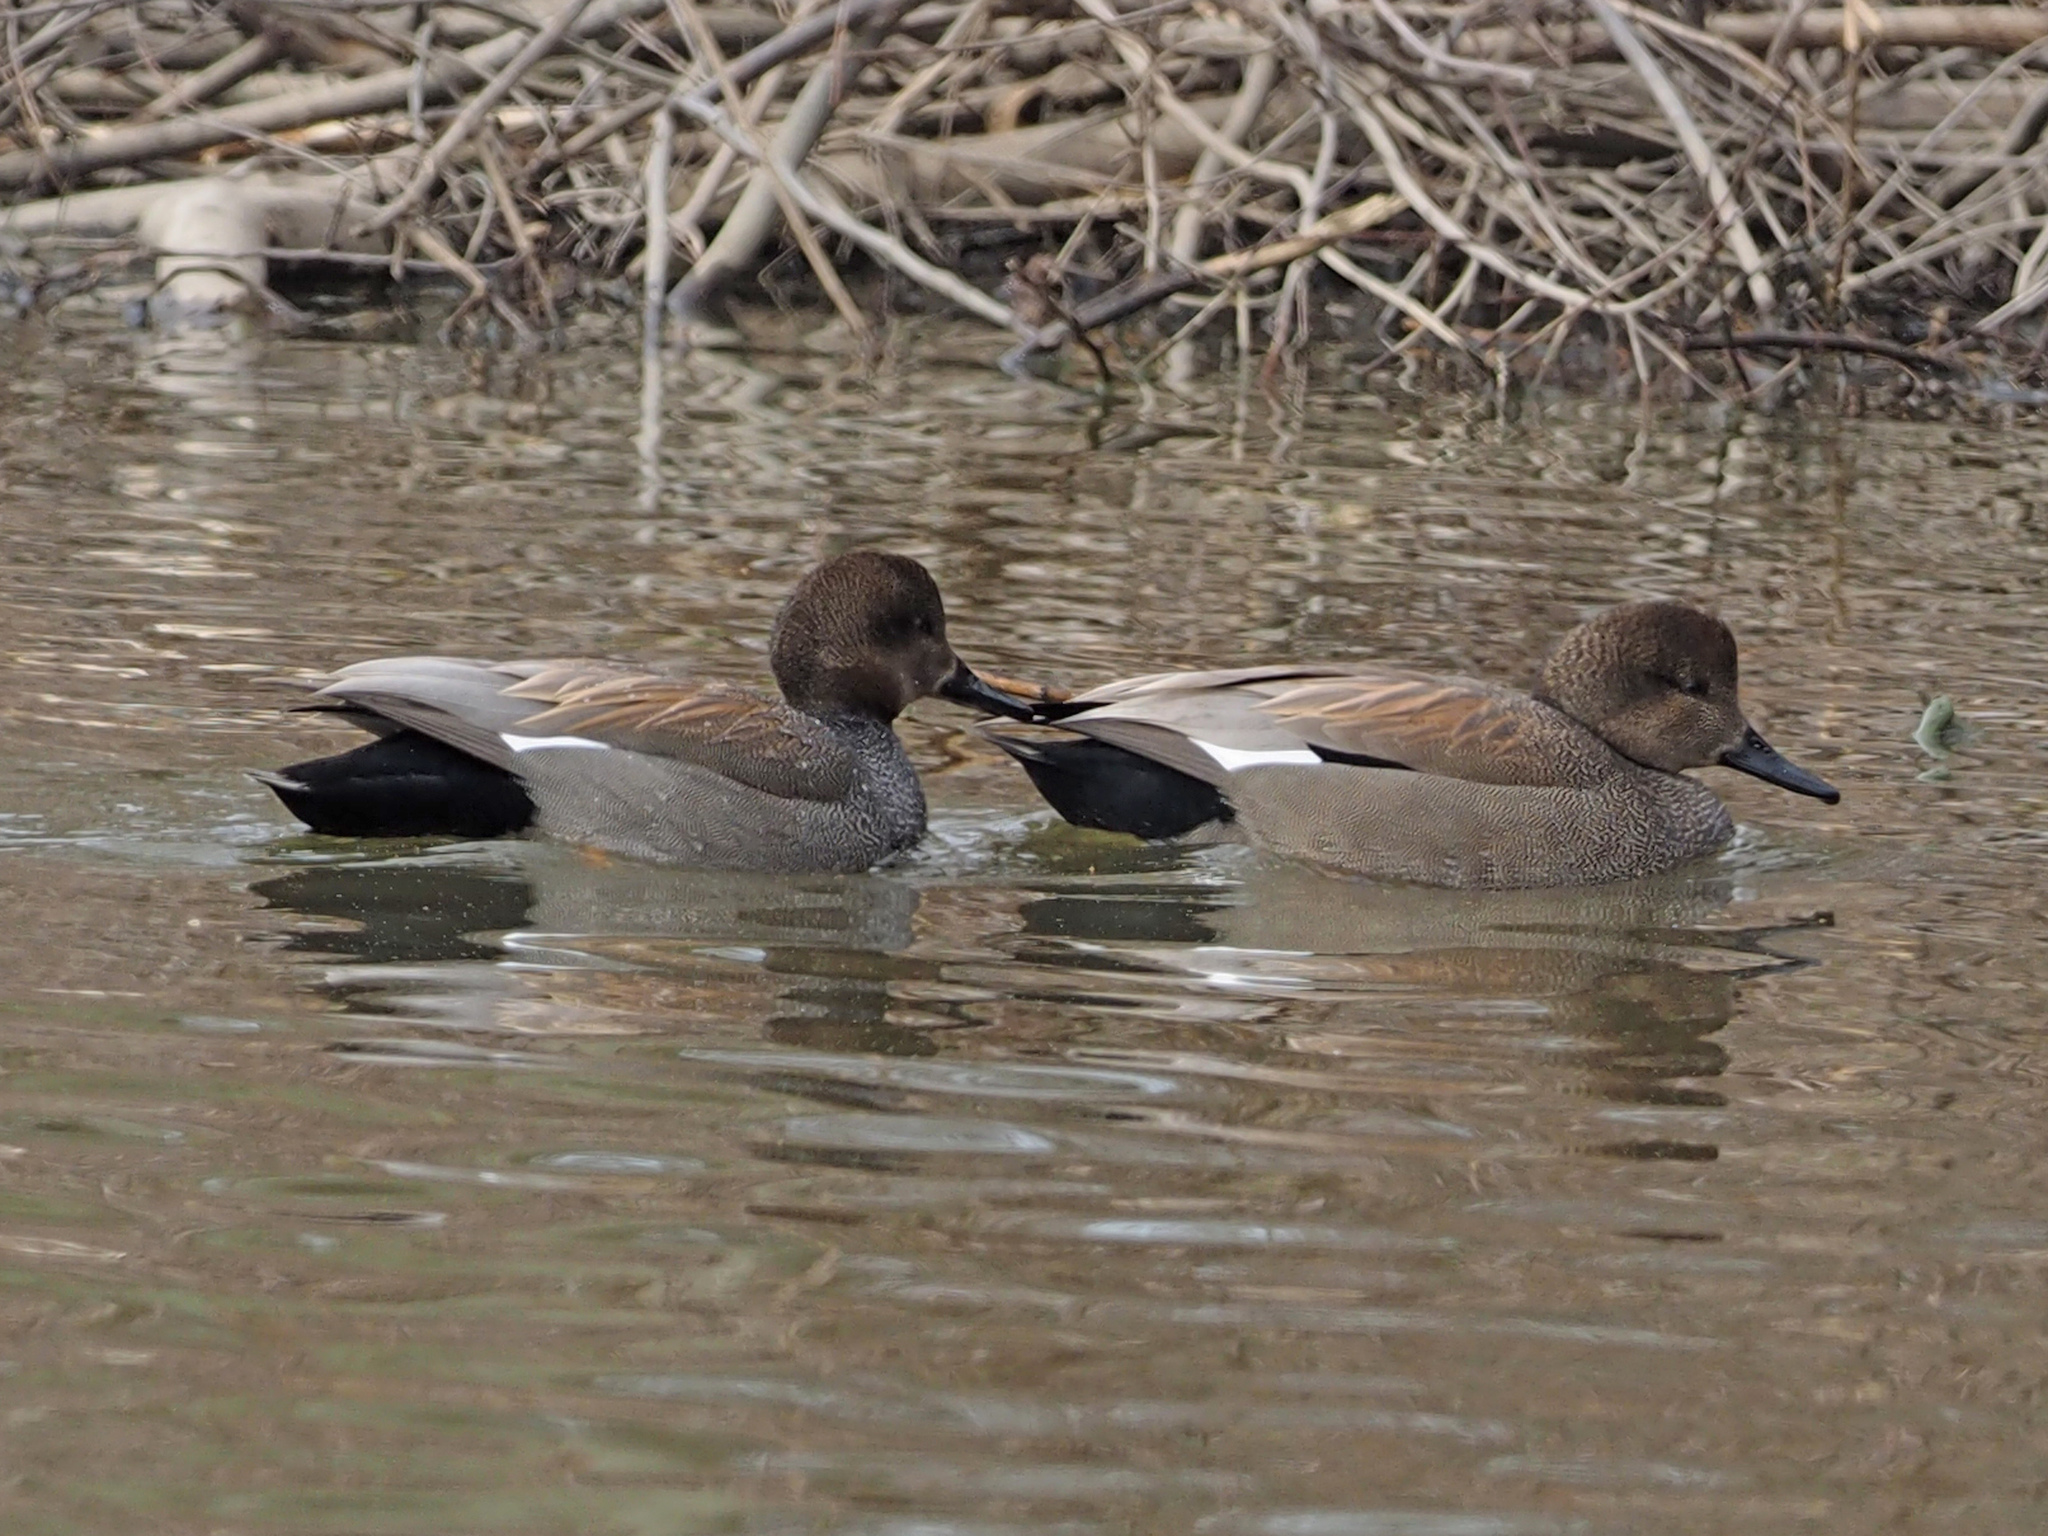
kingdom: Animalia
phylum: Chordata
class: Aves
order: Anseriformes
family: Anatidae
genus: Mareca
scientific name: Mareca strepera
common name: Gadwall
